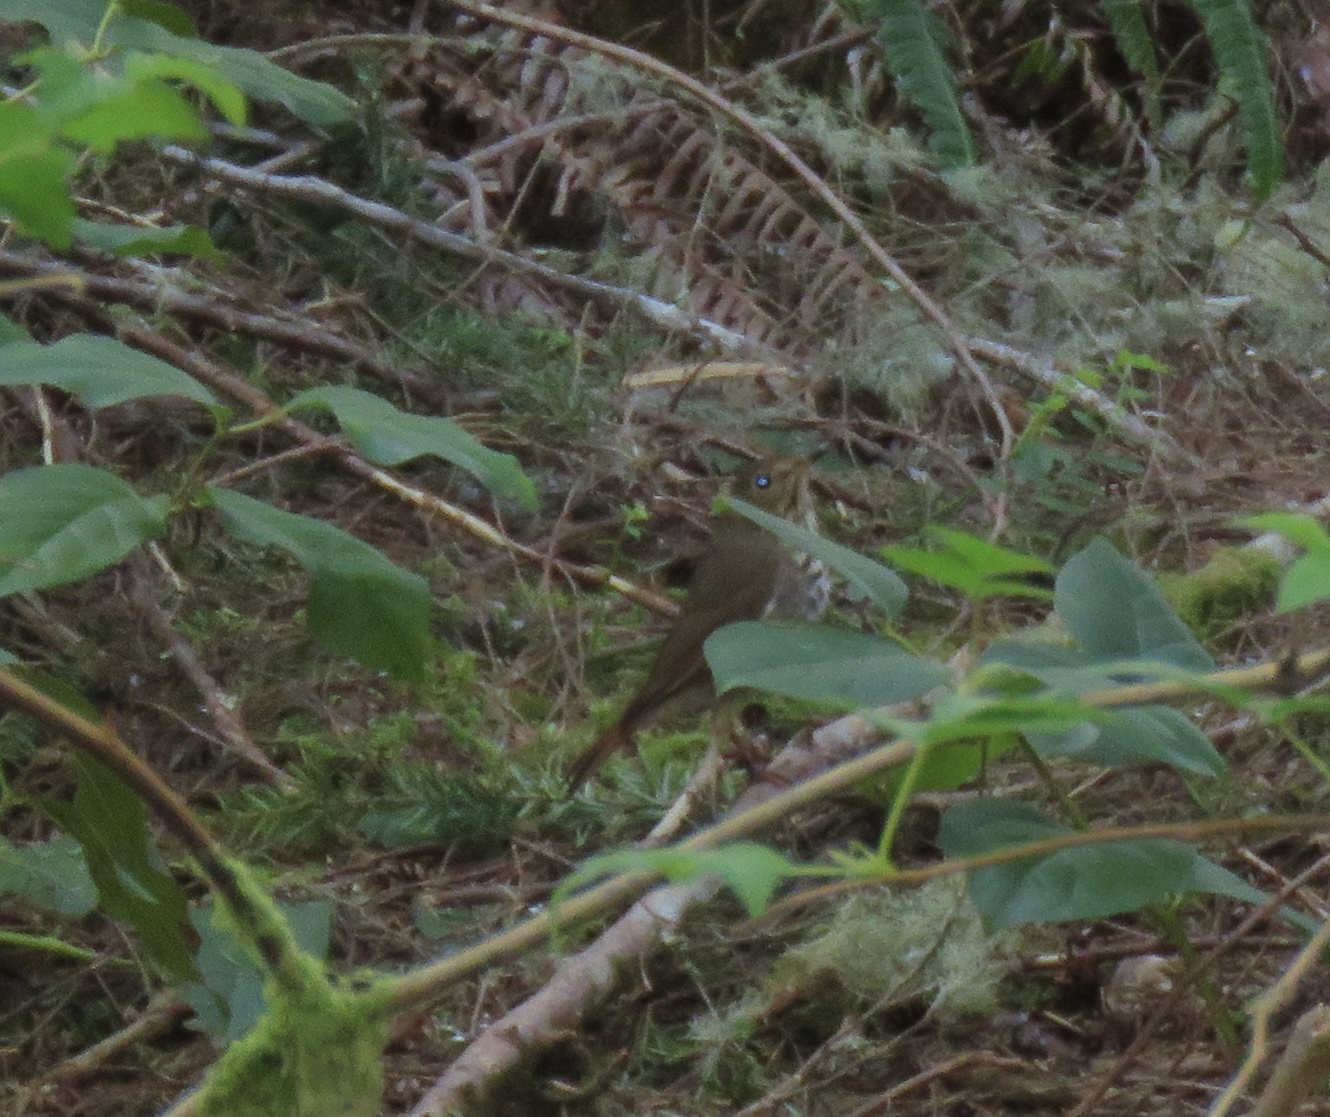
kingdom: Animalia
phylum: Chordata
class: Aves
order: Passeriformes
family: Turdidae
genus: Catharus
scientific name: Catharus guttatus
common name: Hermit thrush
